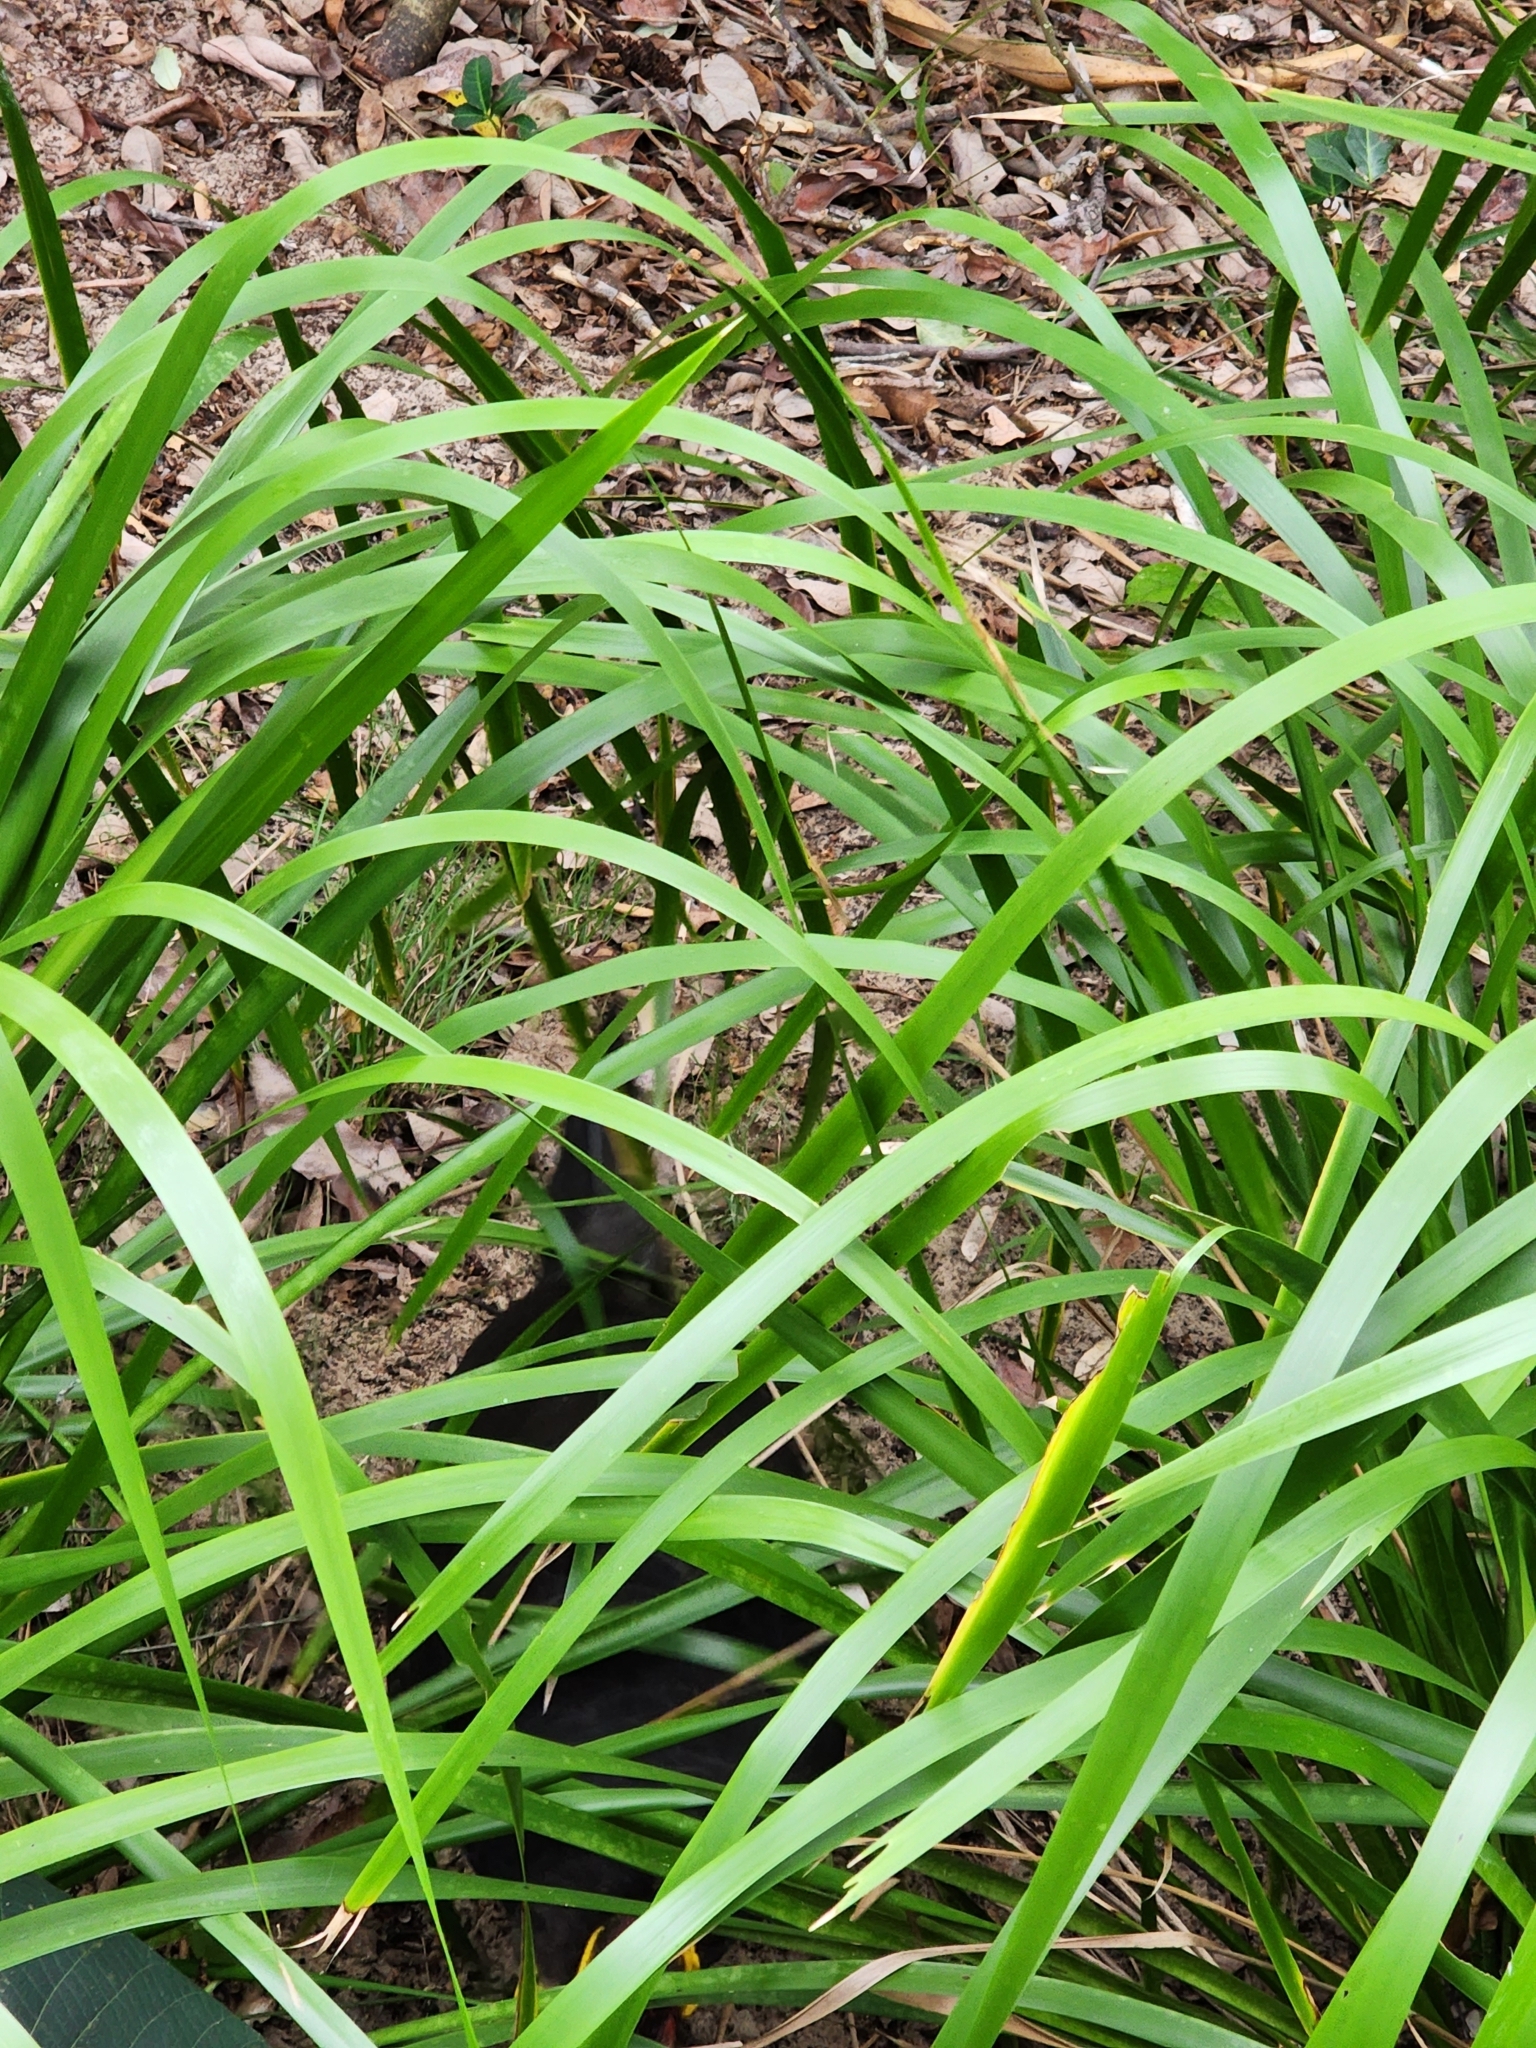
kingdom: Animalia
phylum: Chordata
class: Aves
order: Galliformes
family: Megapodiidae
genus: Alectura
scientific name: Alectura lathami
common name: Australian brushturkey
